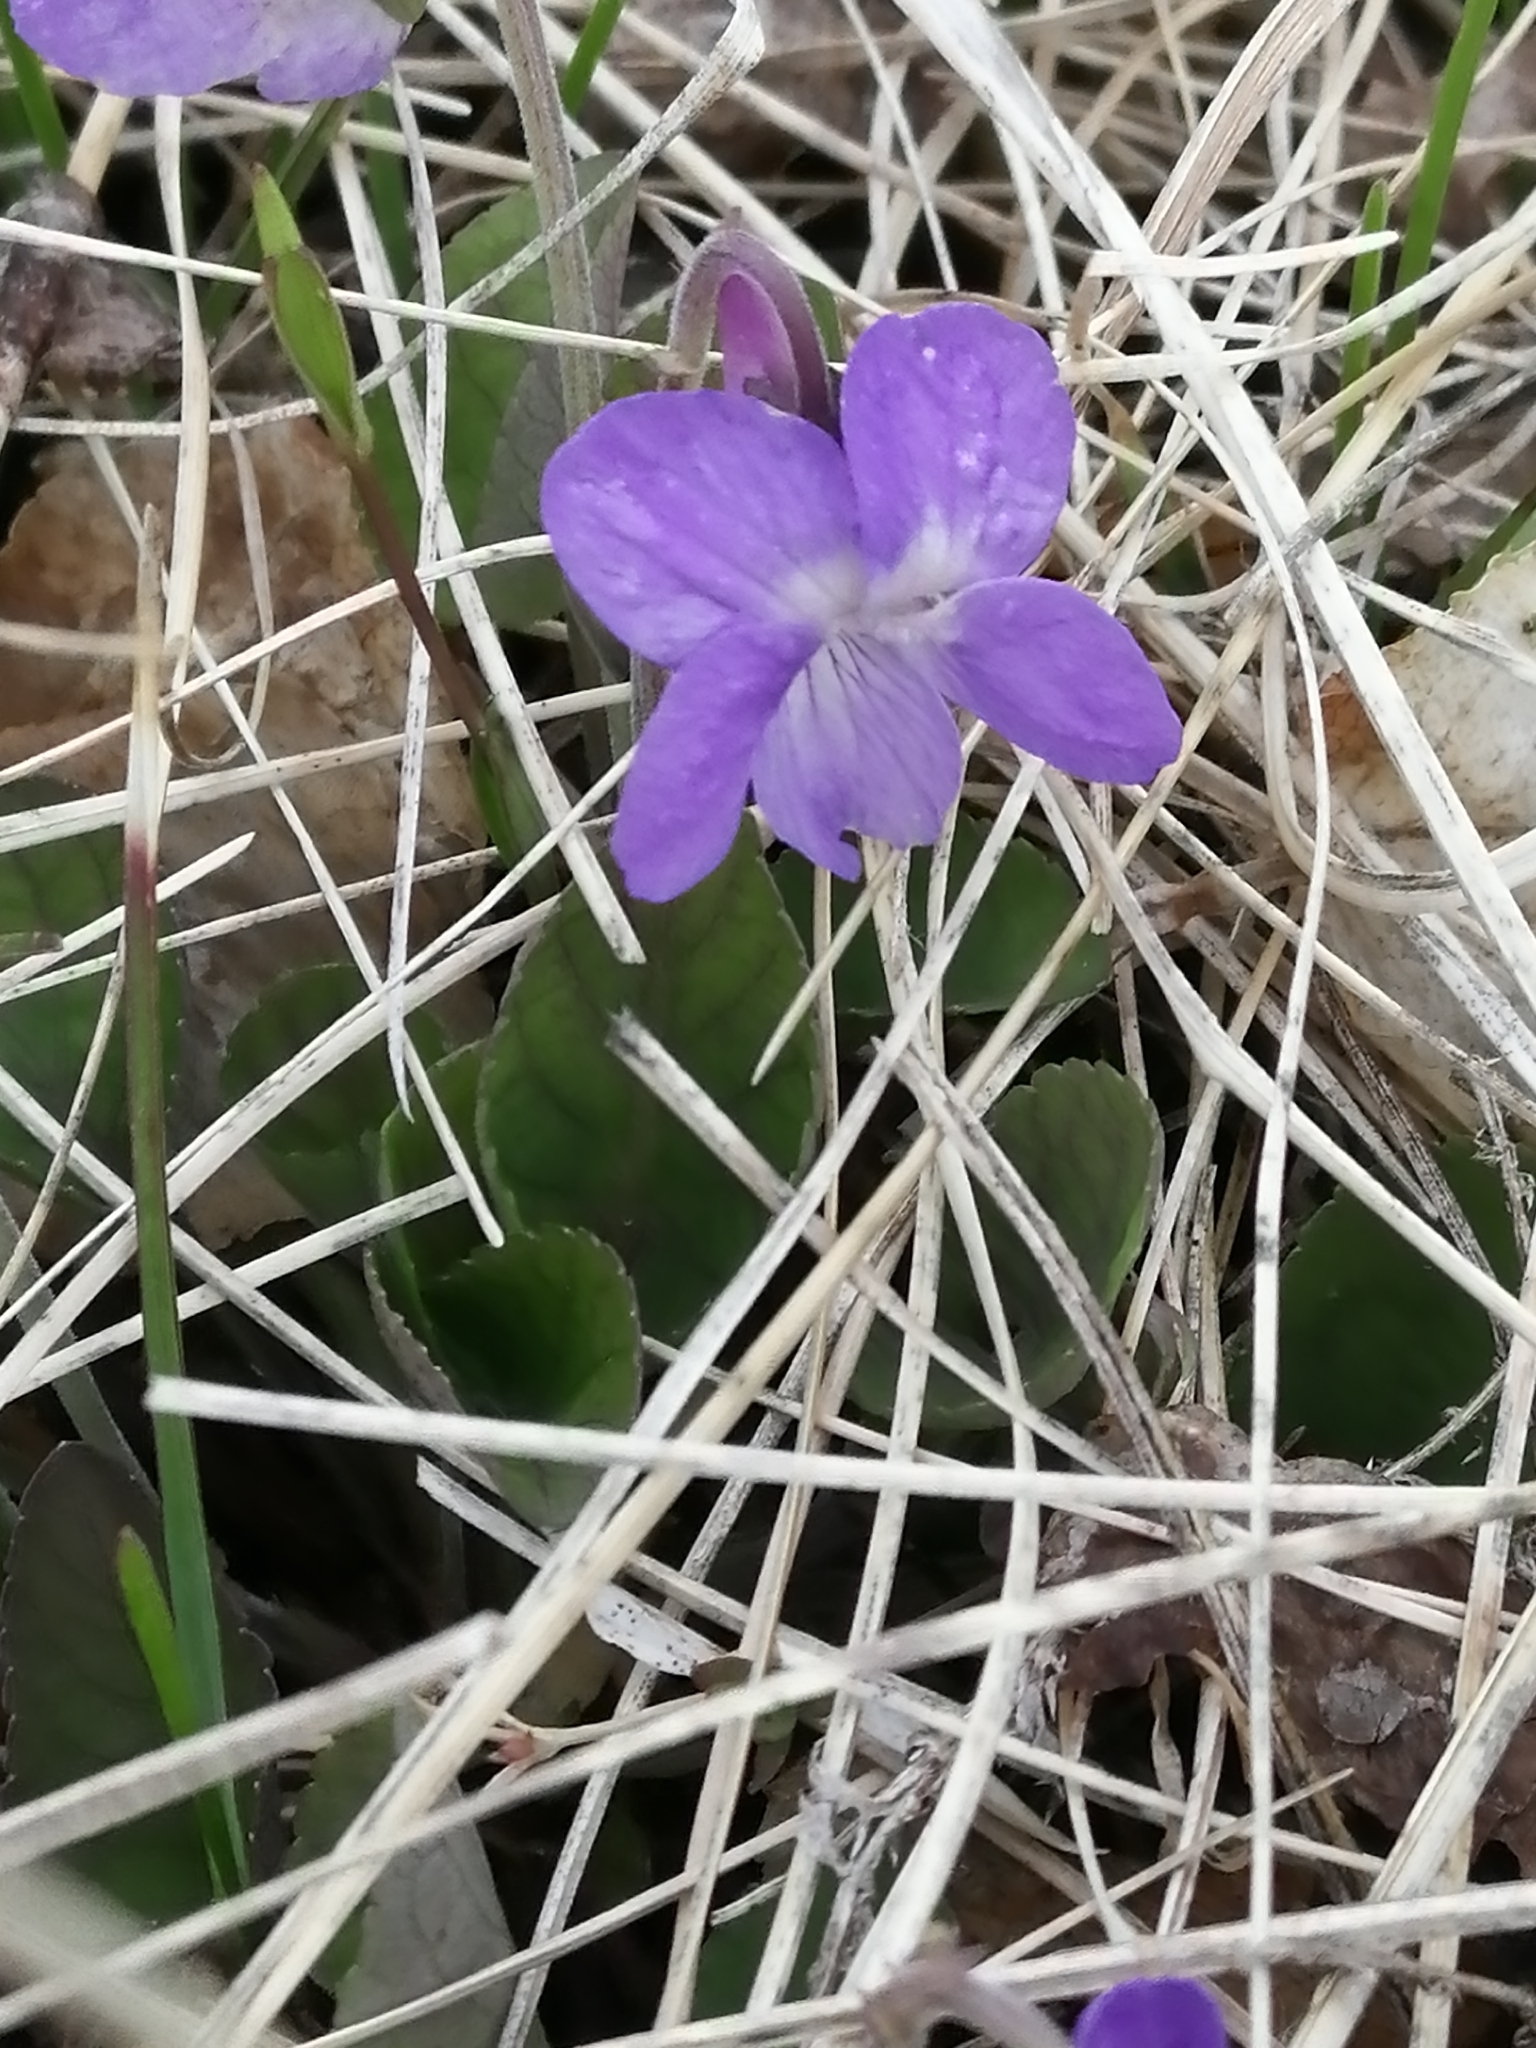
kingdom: Plantae
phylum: Tracheophyta
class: Magnoliopsida
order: Malpighiales
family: Violaceae
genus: Viola
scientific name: Viola rupestris
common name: Teesdale violet
